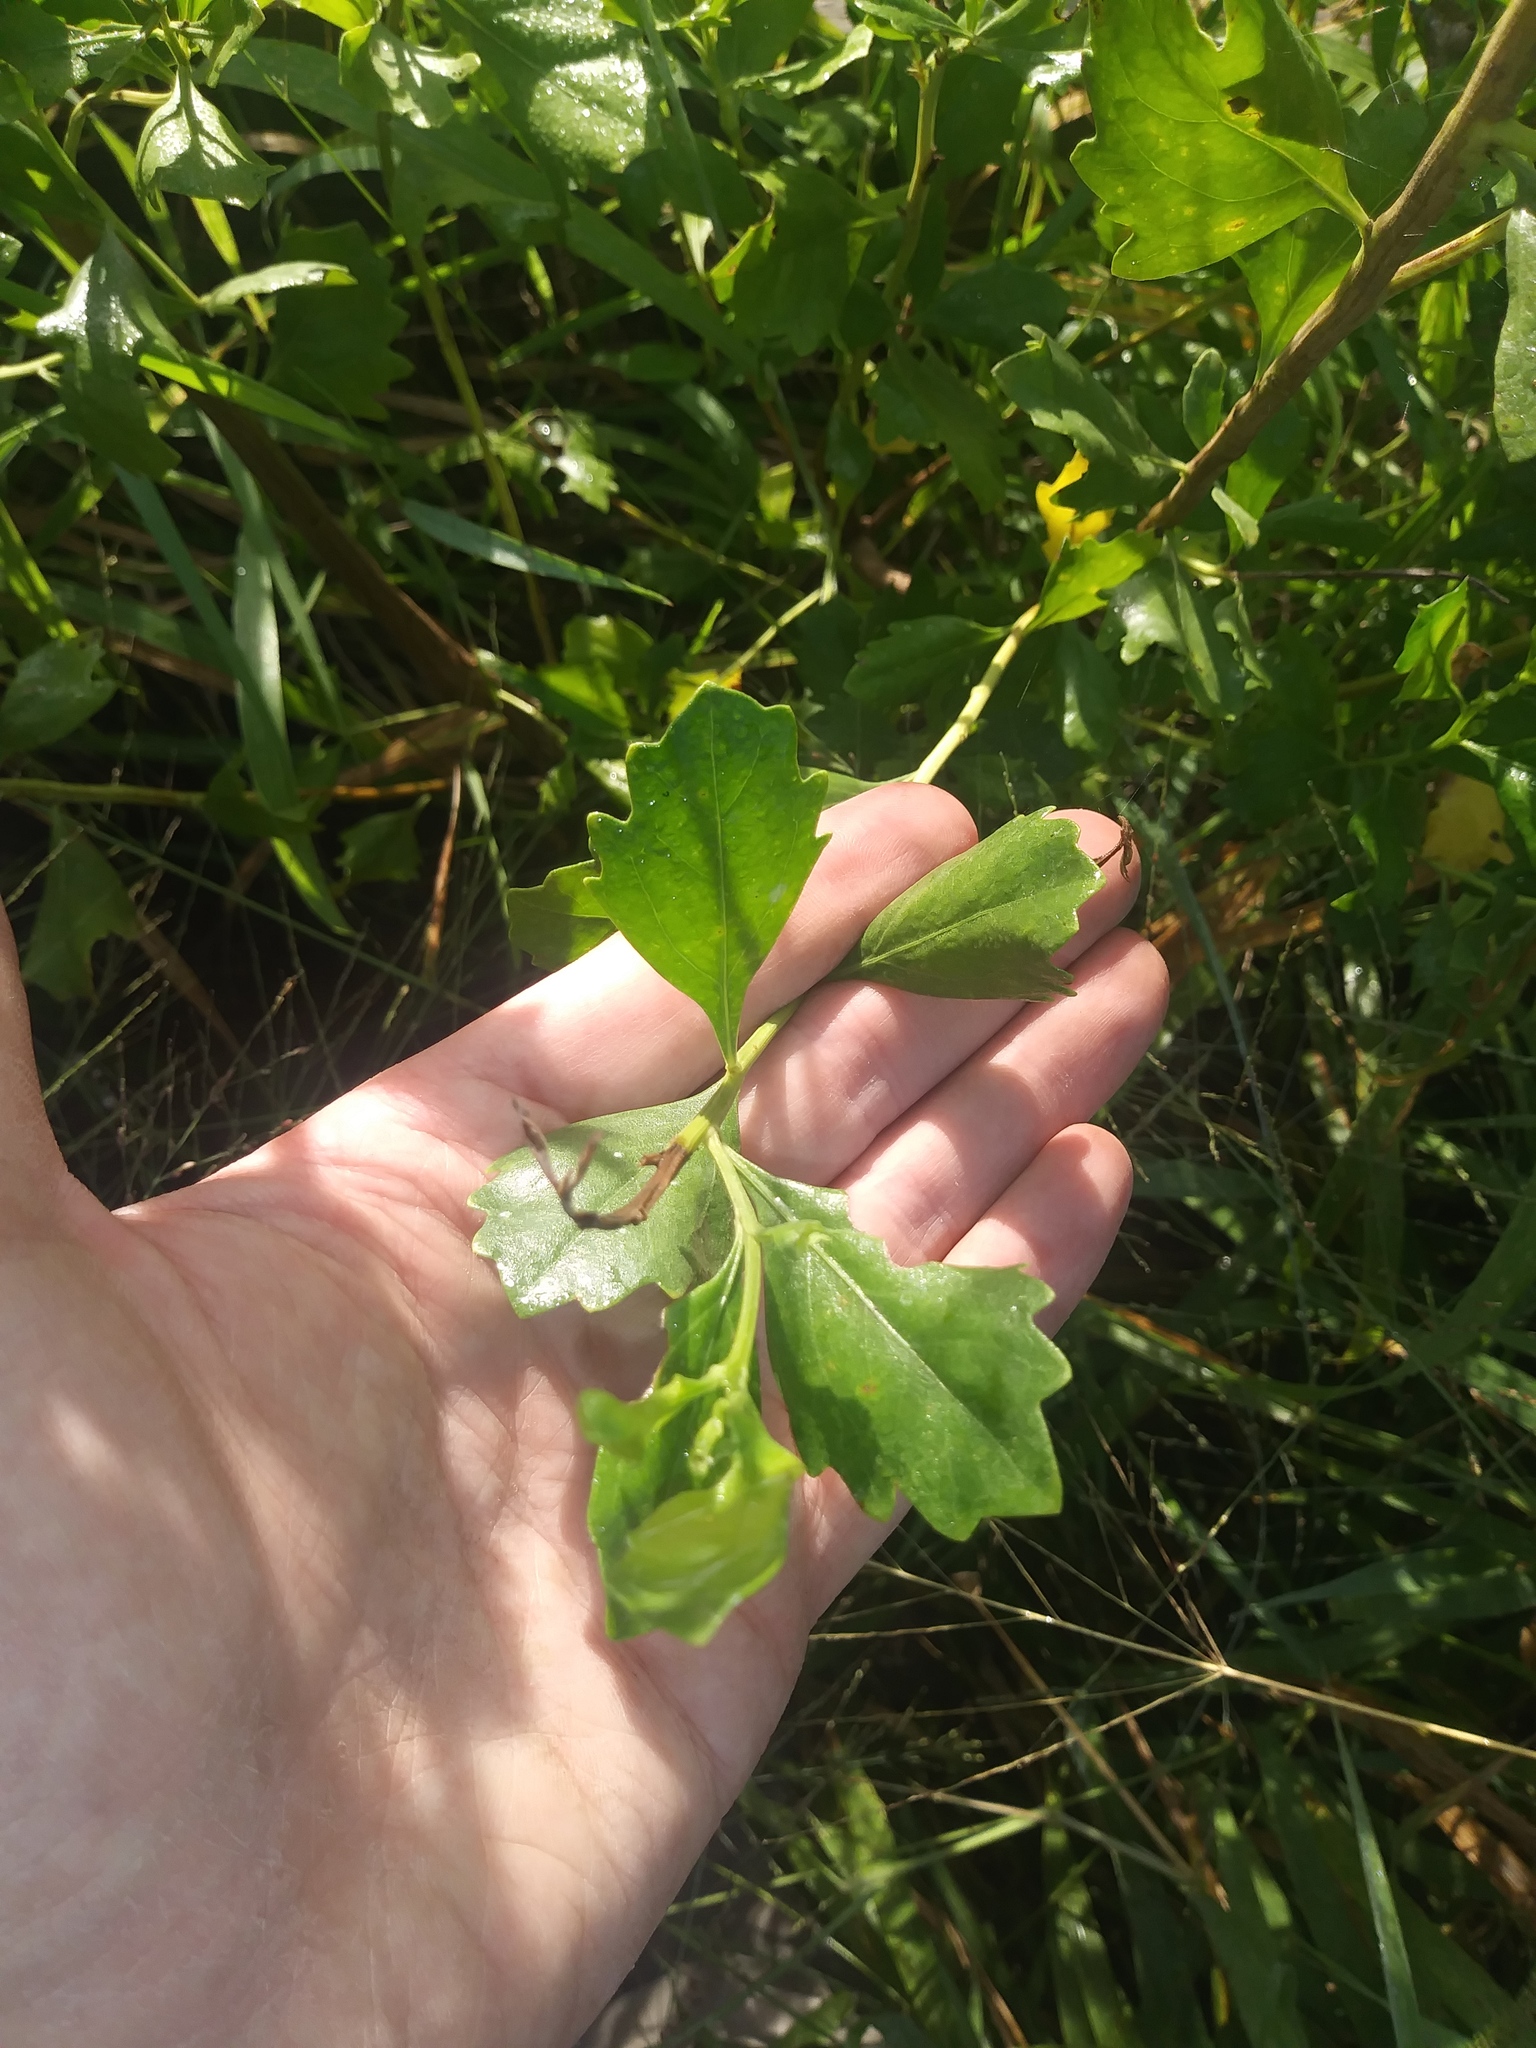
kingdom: Plantae
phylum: Tracheophyta
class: Magnoliopsida
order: Asterales
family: Asteraceae
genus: Baccharis
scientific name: Baccharis halimifolia
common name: Eastern baccharis
